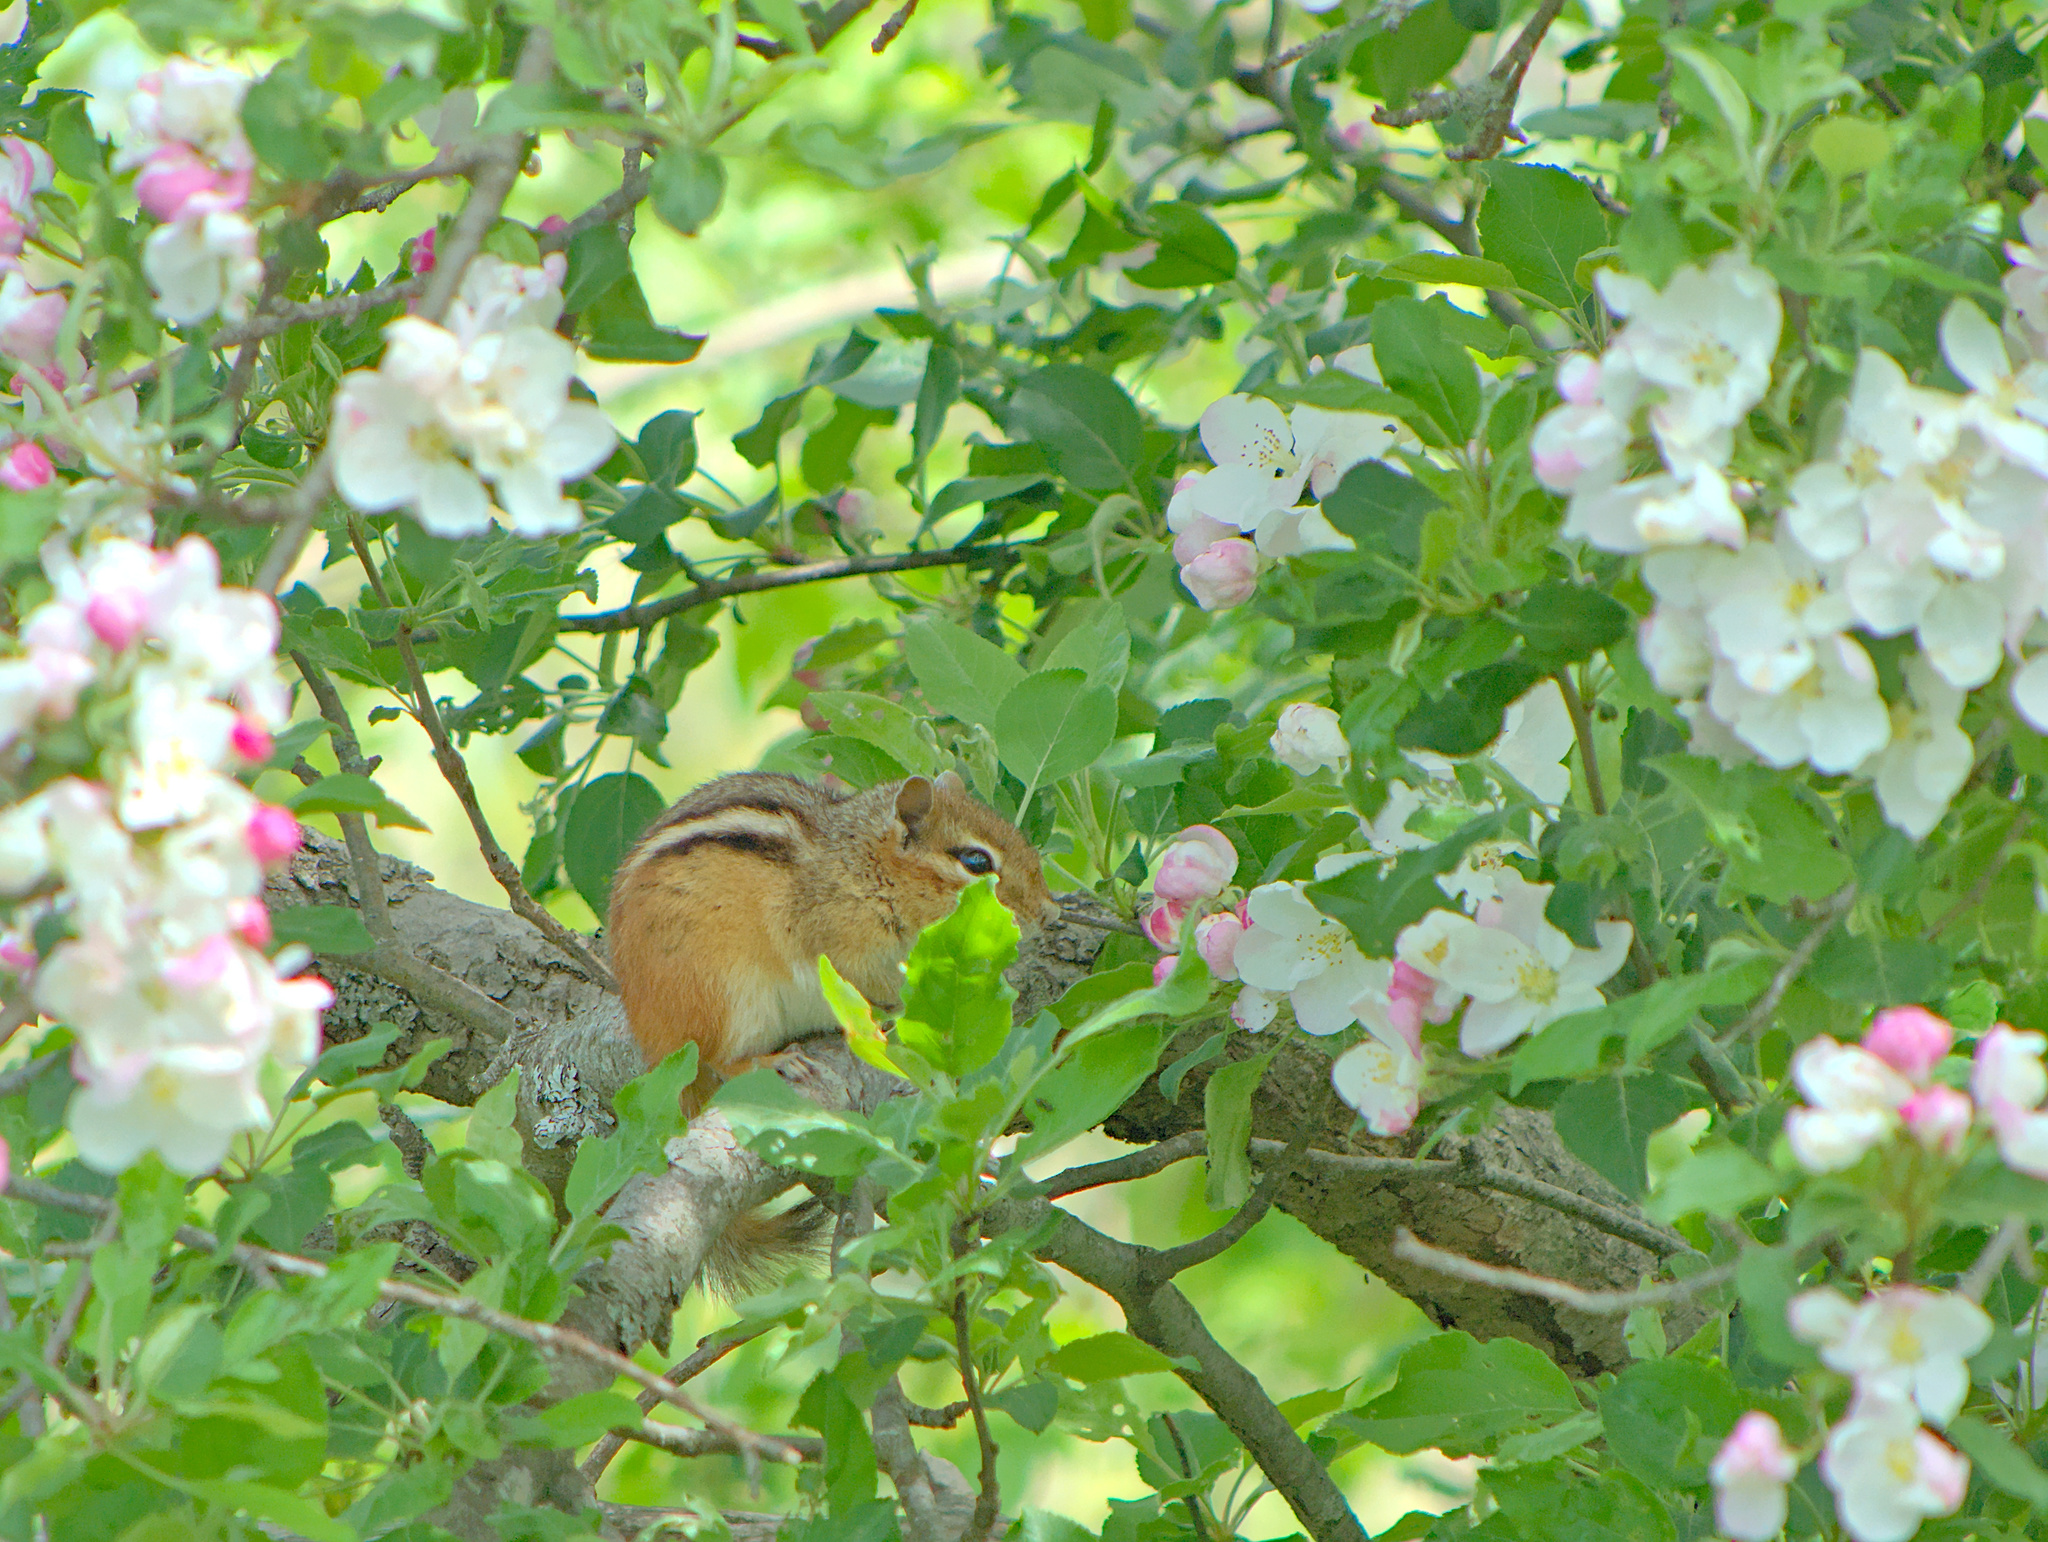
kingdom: Animalia
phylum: Chordata
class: Mammalia
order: Rodentia
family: Sciuridae
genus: Tamias
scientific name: Tamias striatus
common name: Eastern chipmunk
